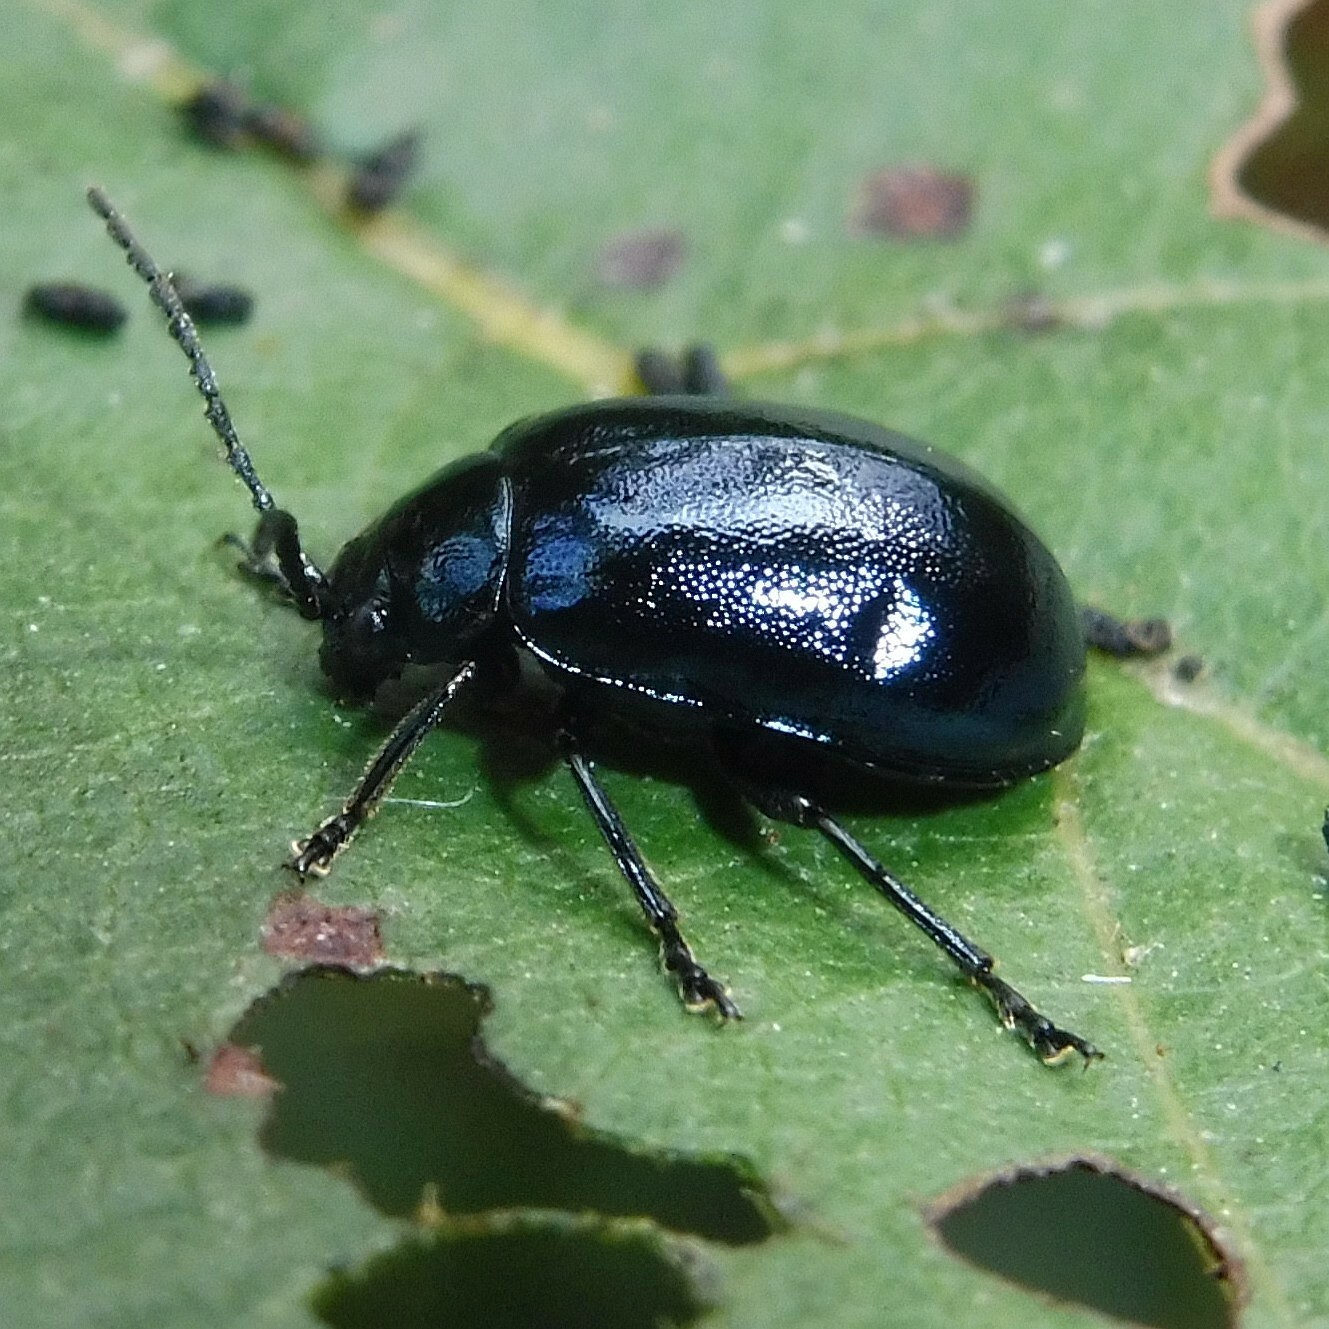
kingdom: Animalia
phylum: Arthropoda
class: Insecta
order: Coleoptera
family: Chrysomelidae
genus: Agelastica
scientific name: Agelastica alni
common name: Alder leaf beetle
